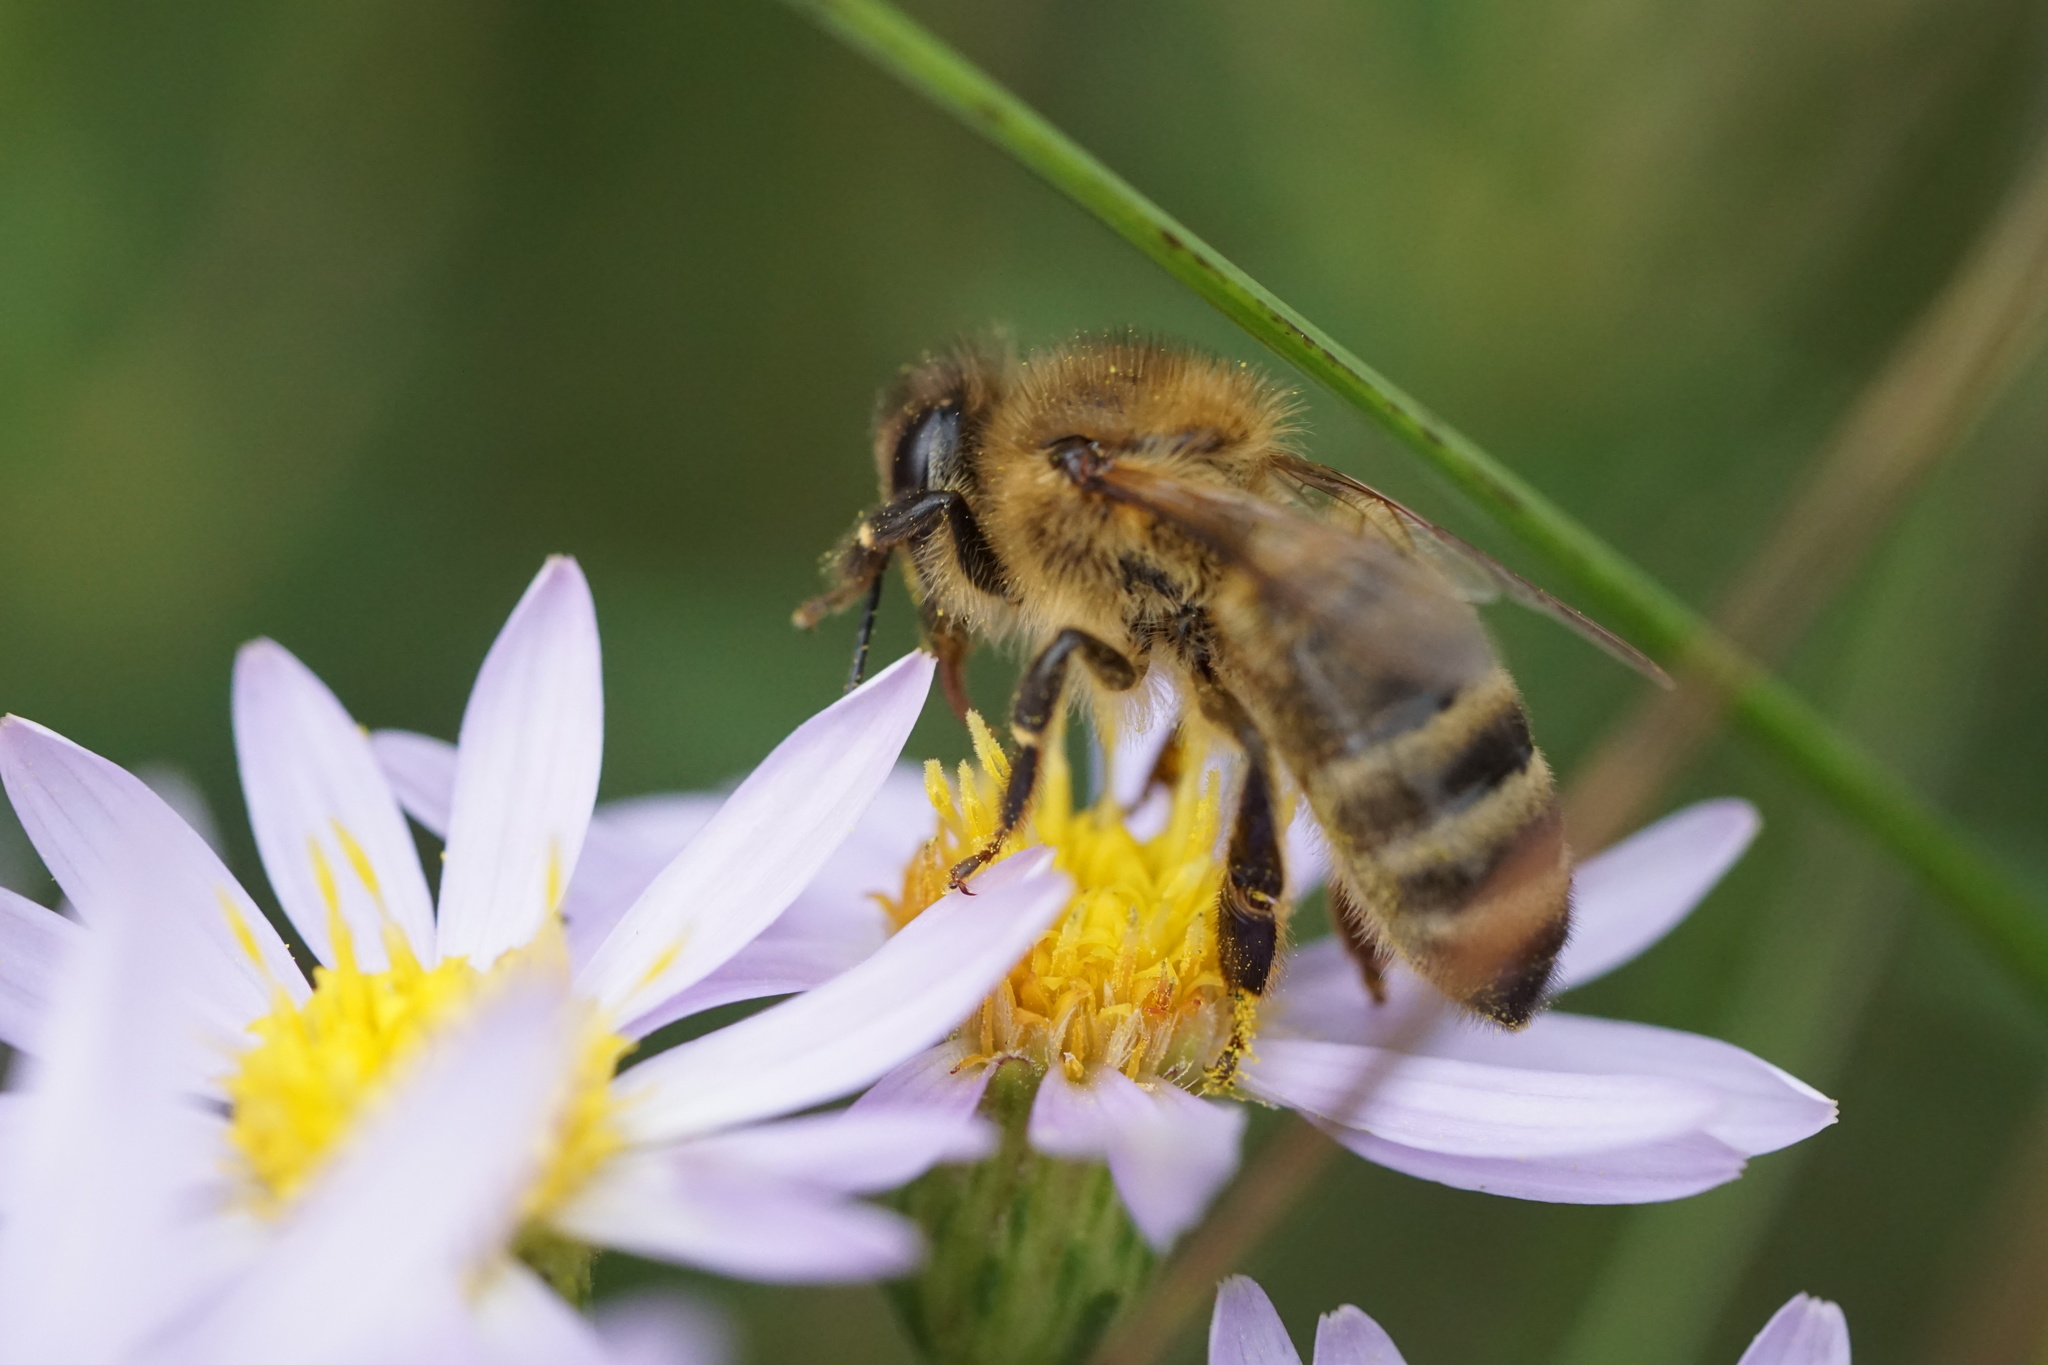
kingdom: Animalia
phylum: Arthropoda
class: Insecta
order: Hymenoptera
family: Apidae
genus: Apis
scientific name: Apis mellifera
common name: Honey bee
